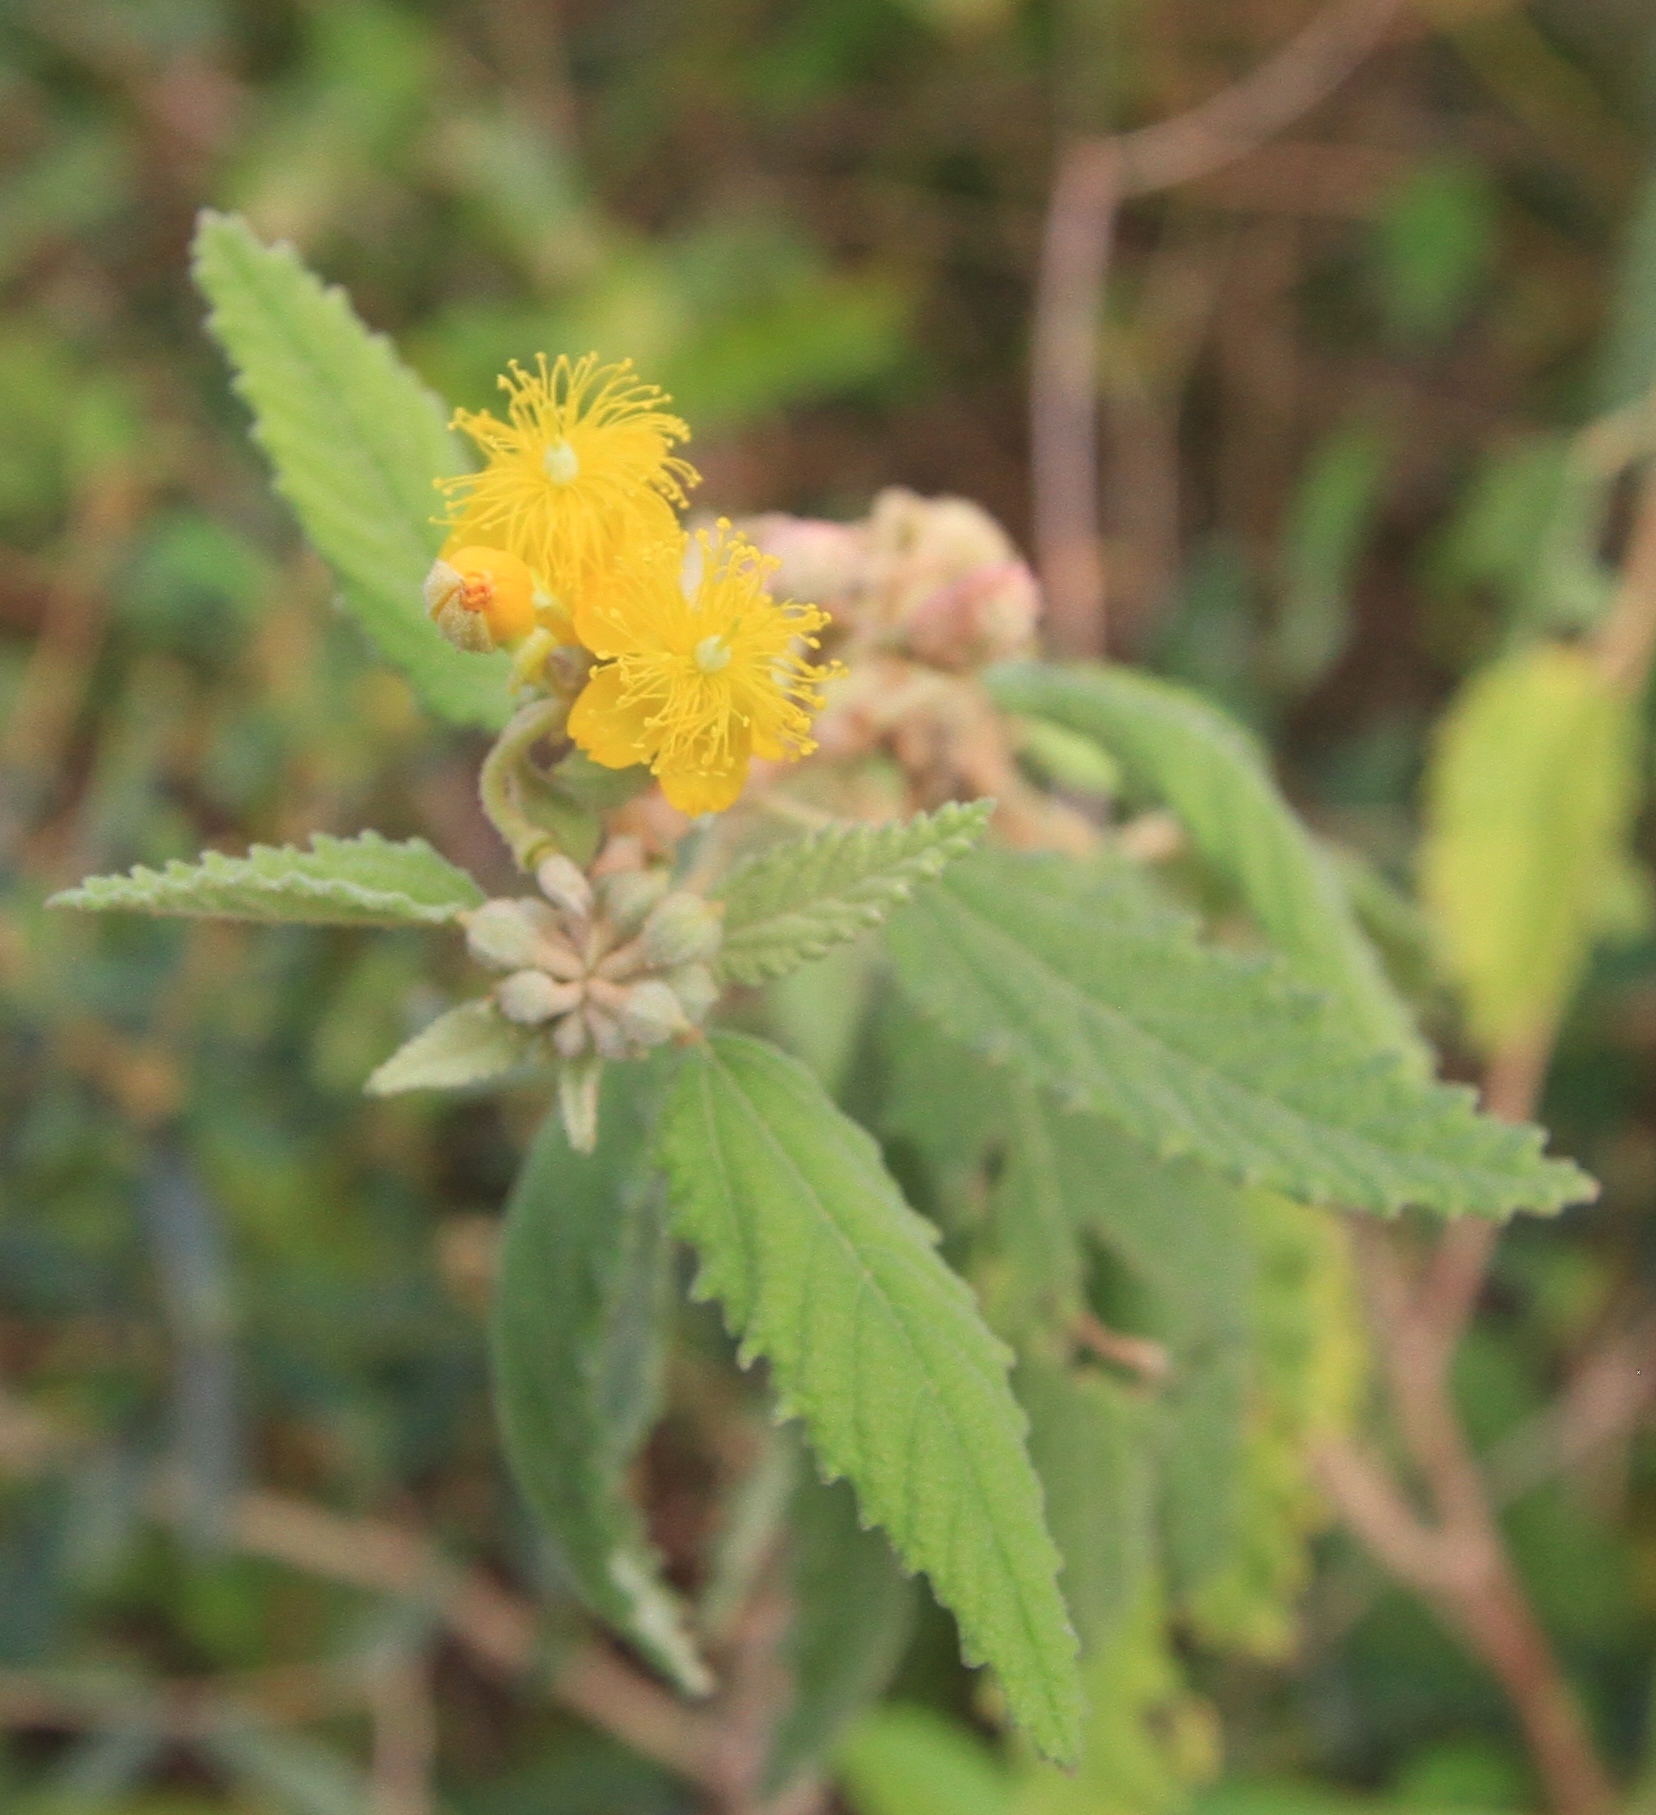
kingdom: Plantae
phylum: Tracheophyta
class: Magnoliopsida
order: Malvales
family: Malvaceae
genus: Corchorus
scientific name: Corchorus hirsutus
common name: Jackswitch
